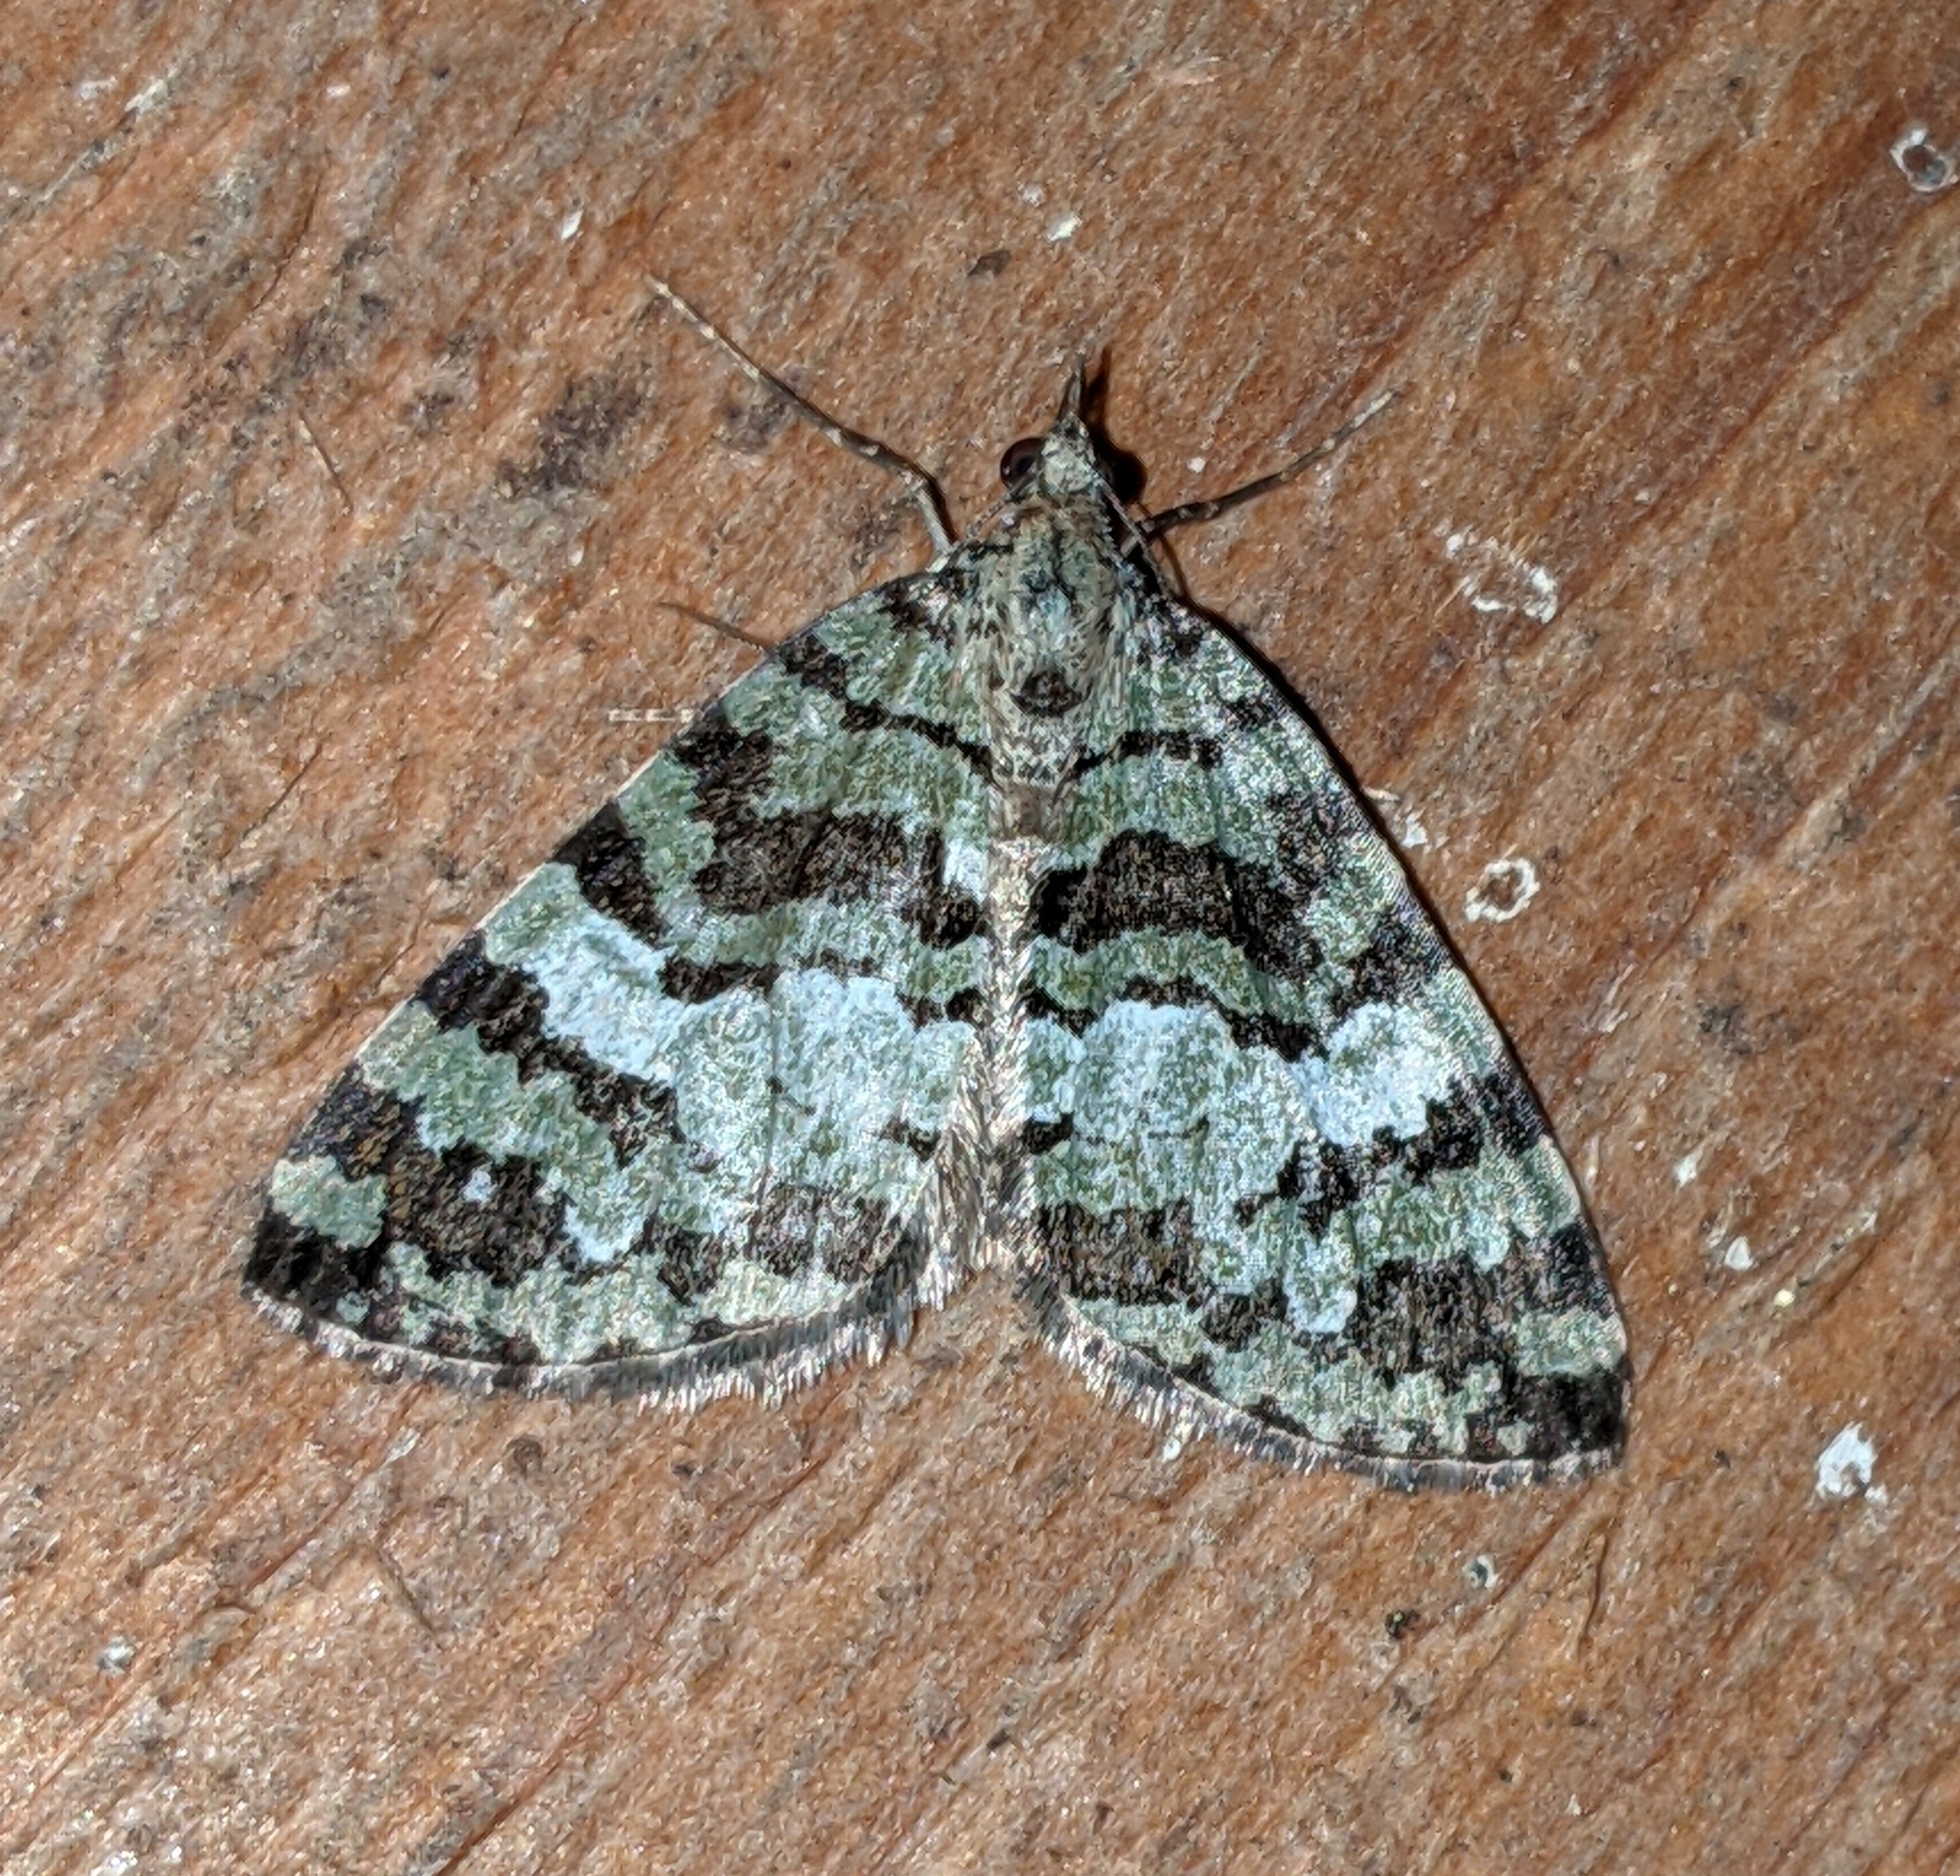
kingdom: Animalia
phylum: Arthropoda
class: Insecta
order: Lepidoptera
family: Geometridae
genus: Hydriomena
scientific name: Hydriomena speciosata
